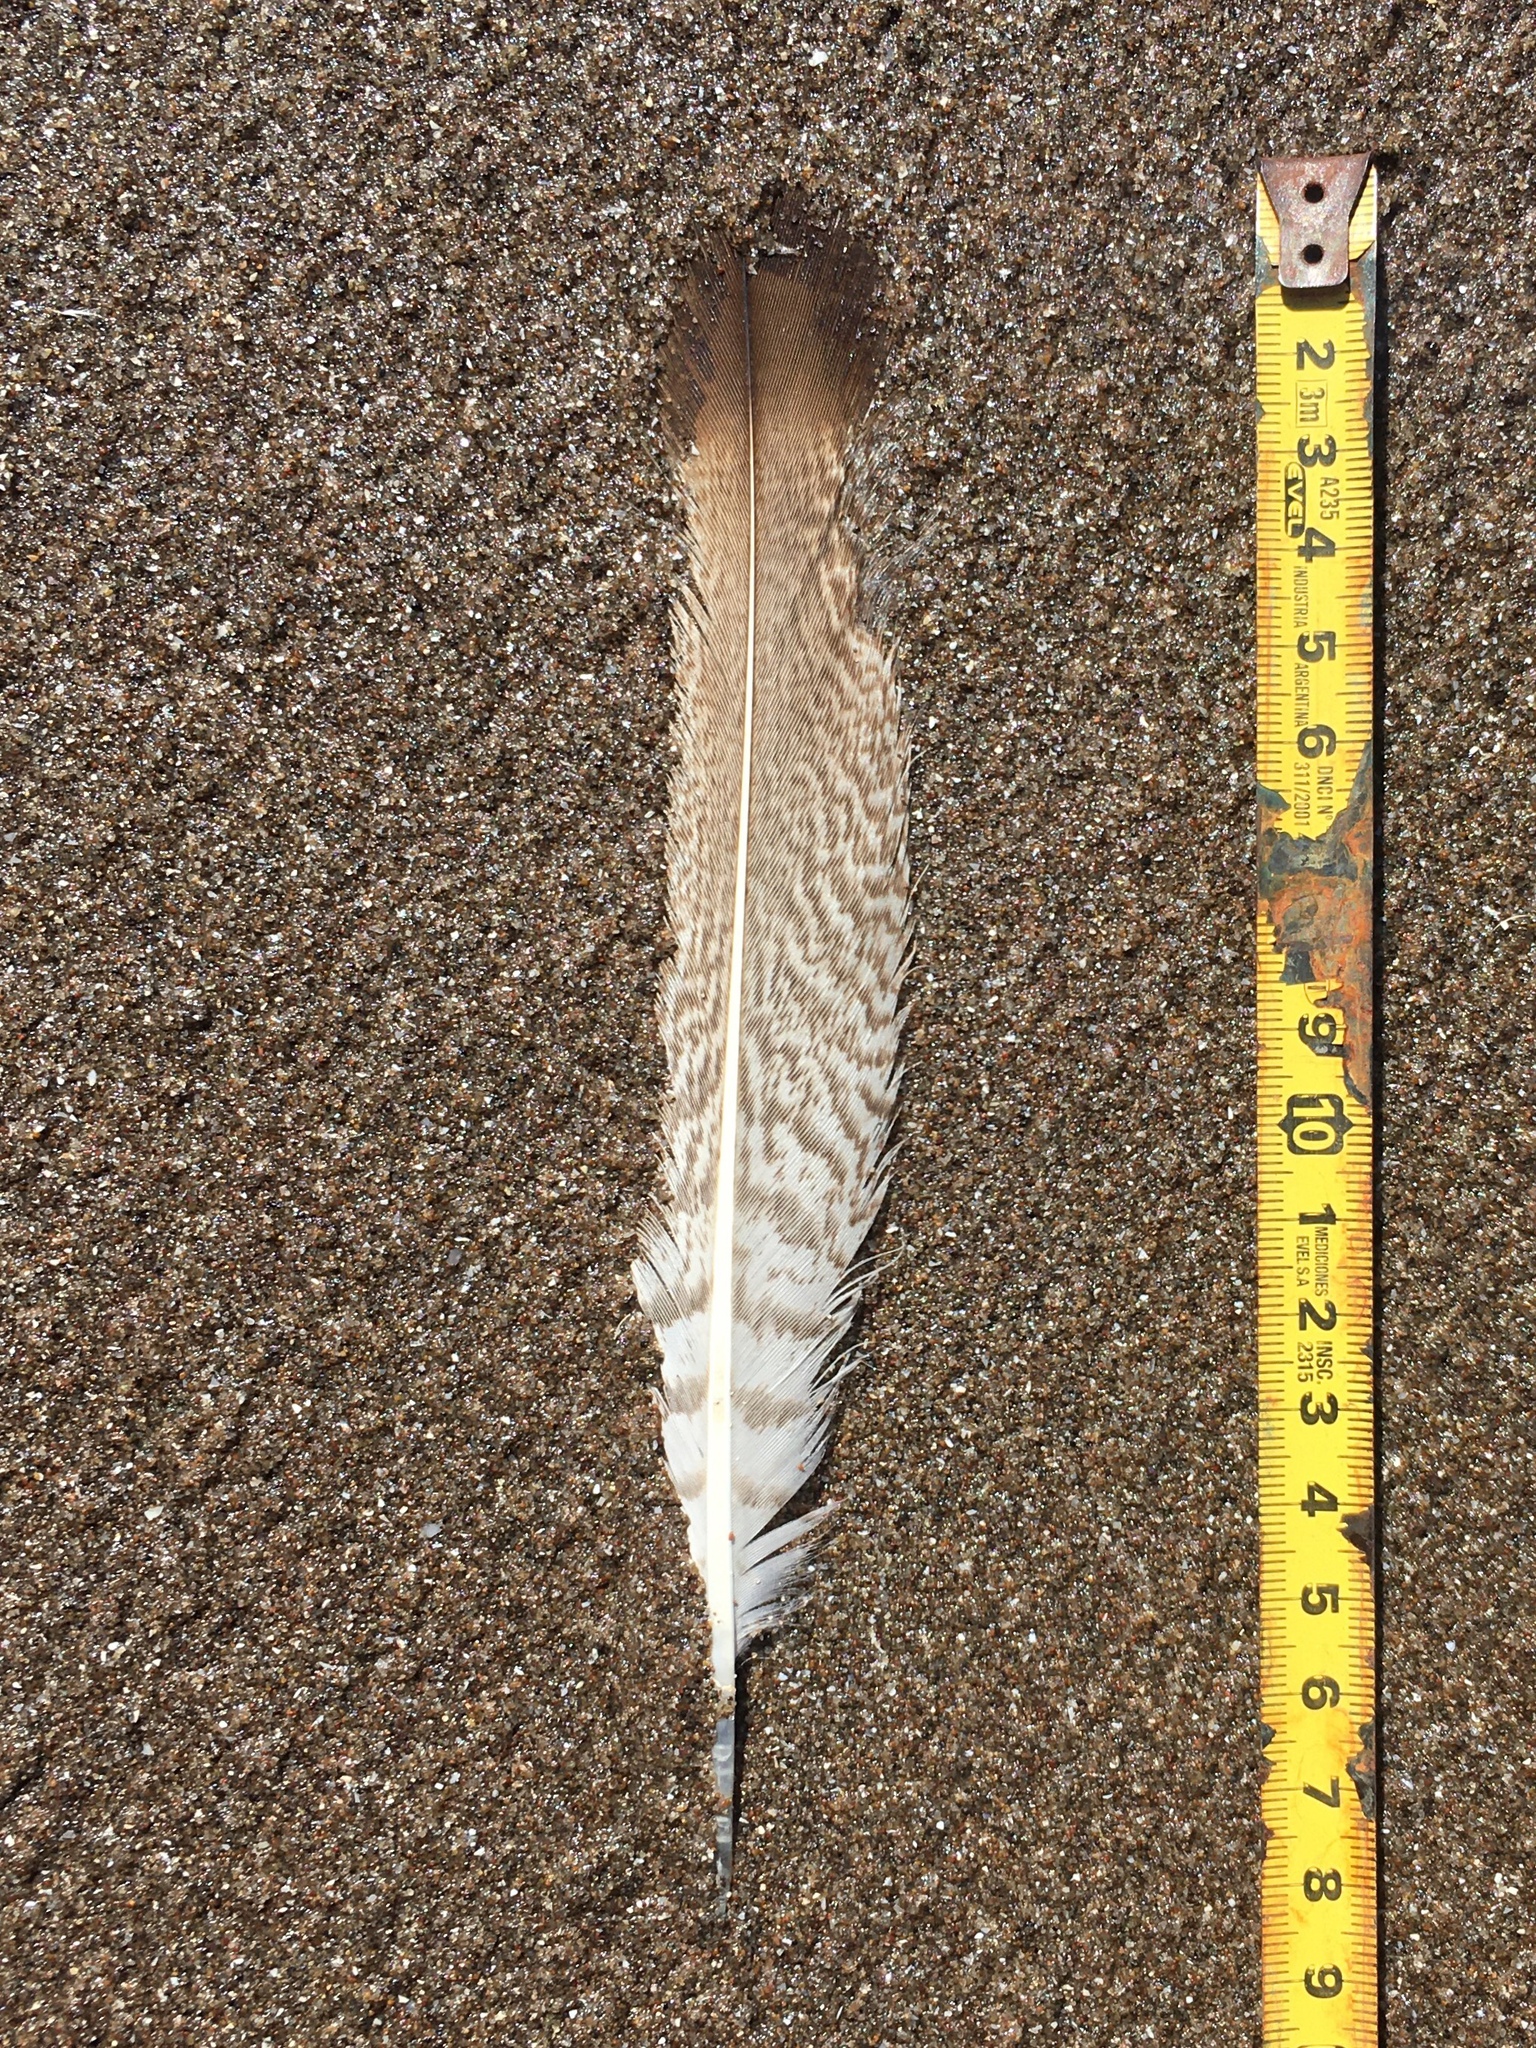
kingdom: Animalia
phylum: Chordata
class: Aves
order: Falconiformes
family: Falconidae
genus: Daptrius
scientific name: Daptrius
